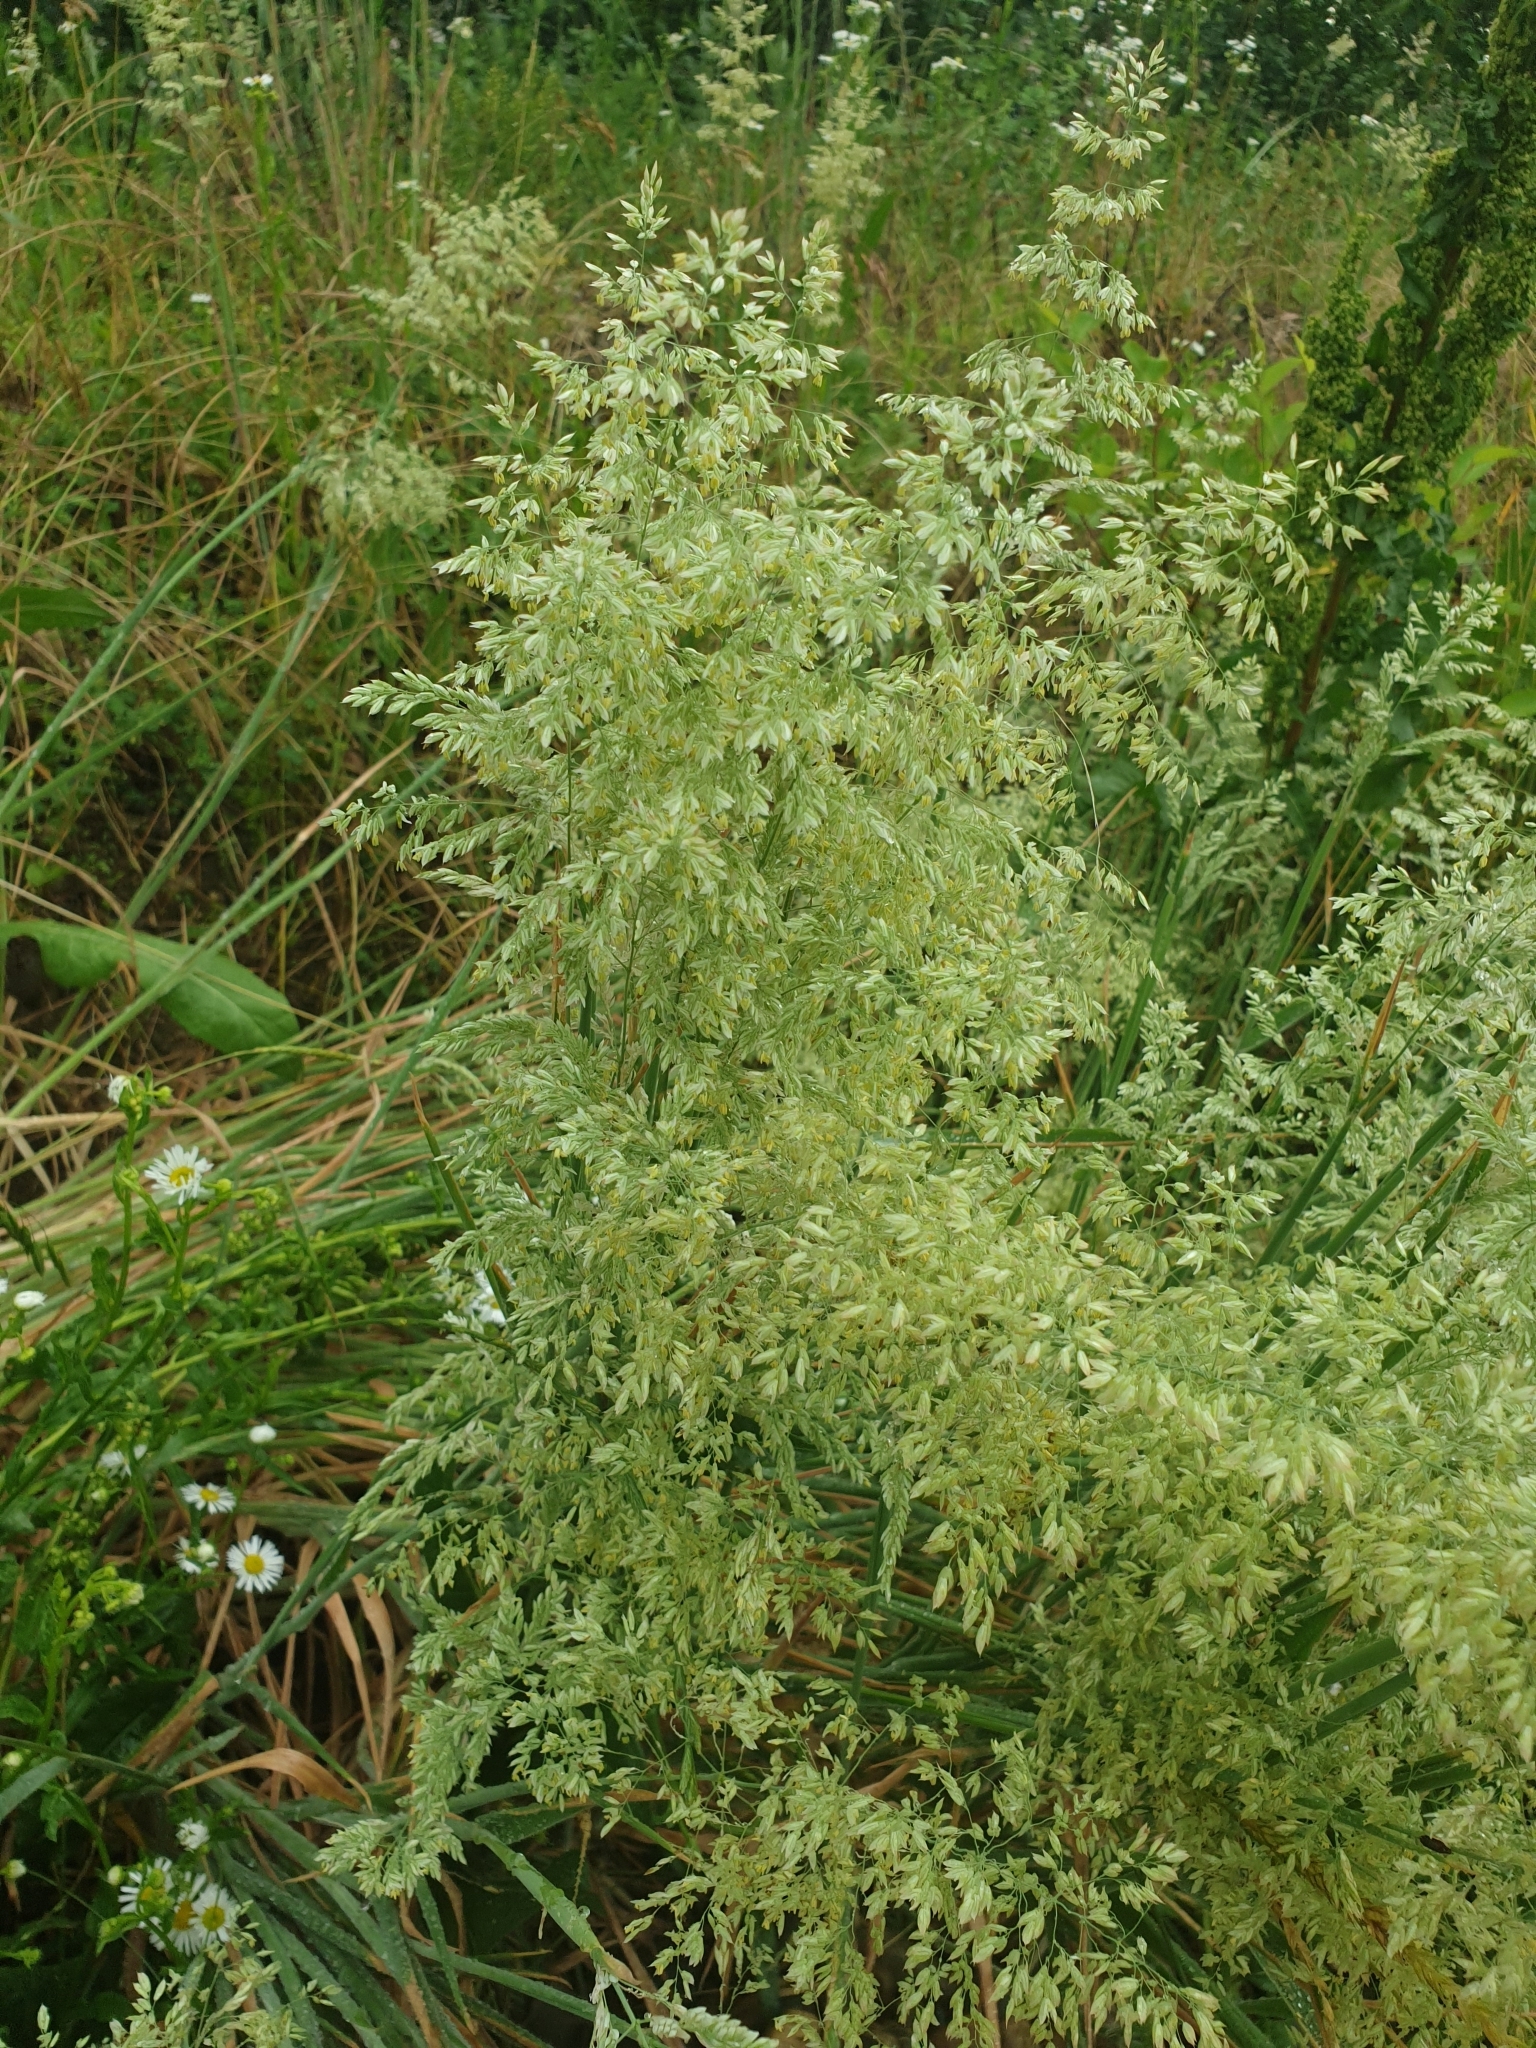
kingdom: Plantae
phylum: Tracheophyta
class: Liliopsida
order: Poales
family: Poaceae
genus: Holcus
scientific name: Holcus lanatus
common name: Yorkshire-fog
